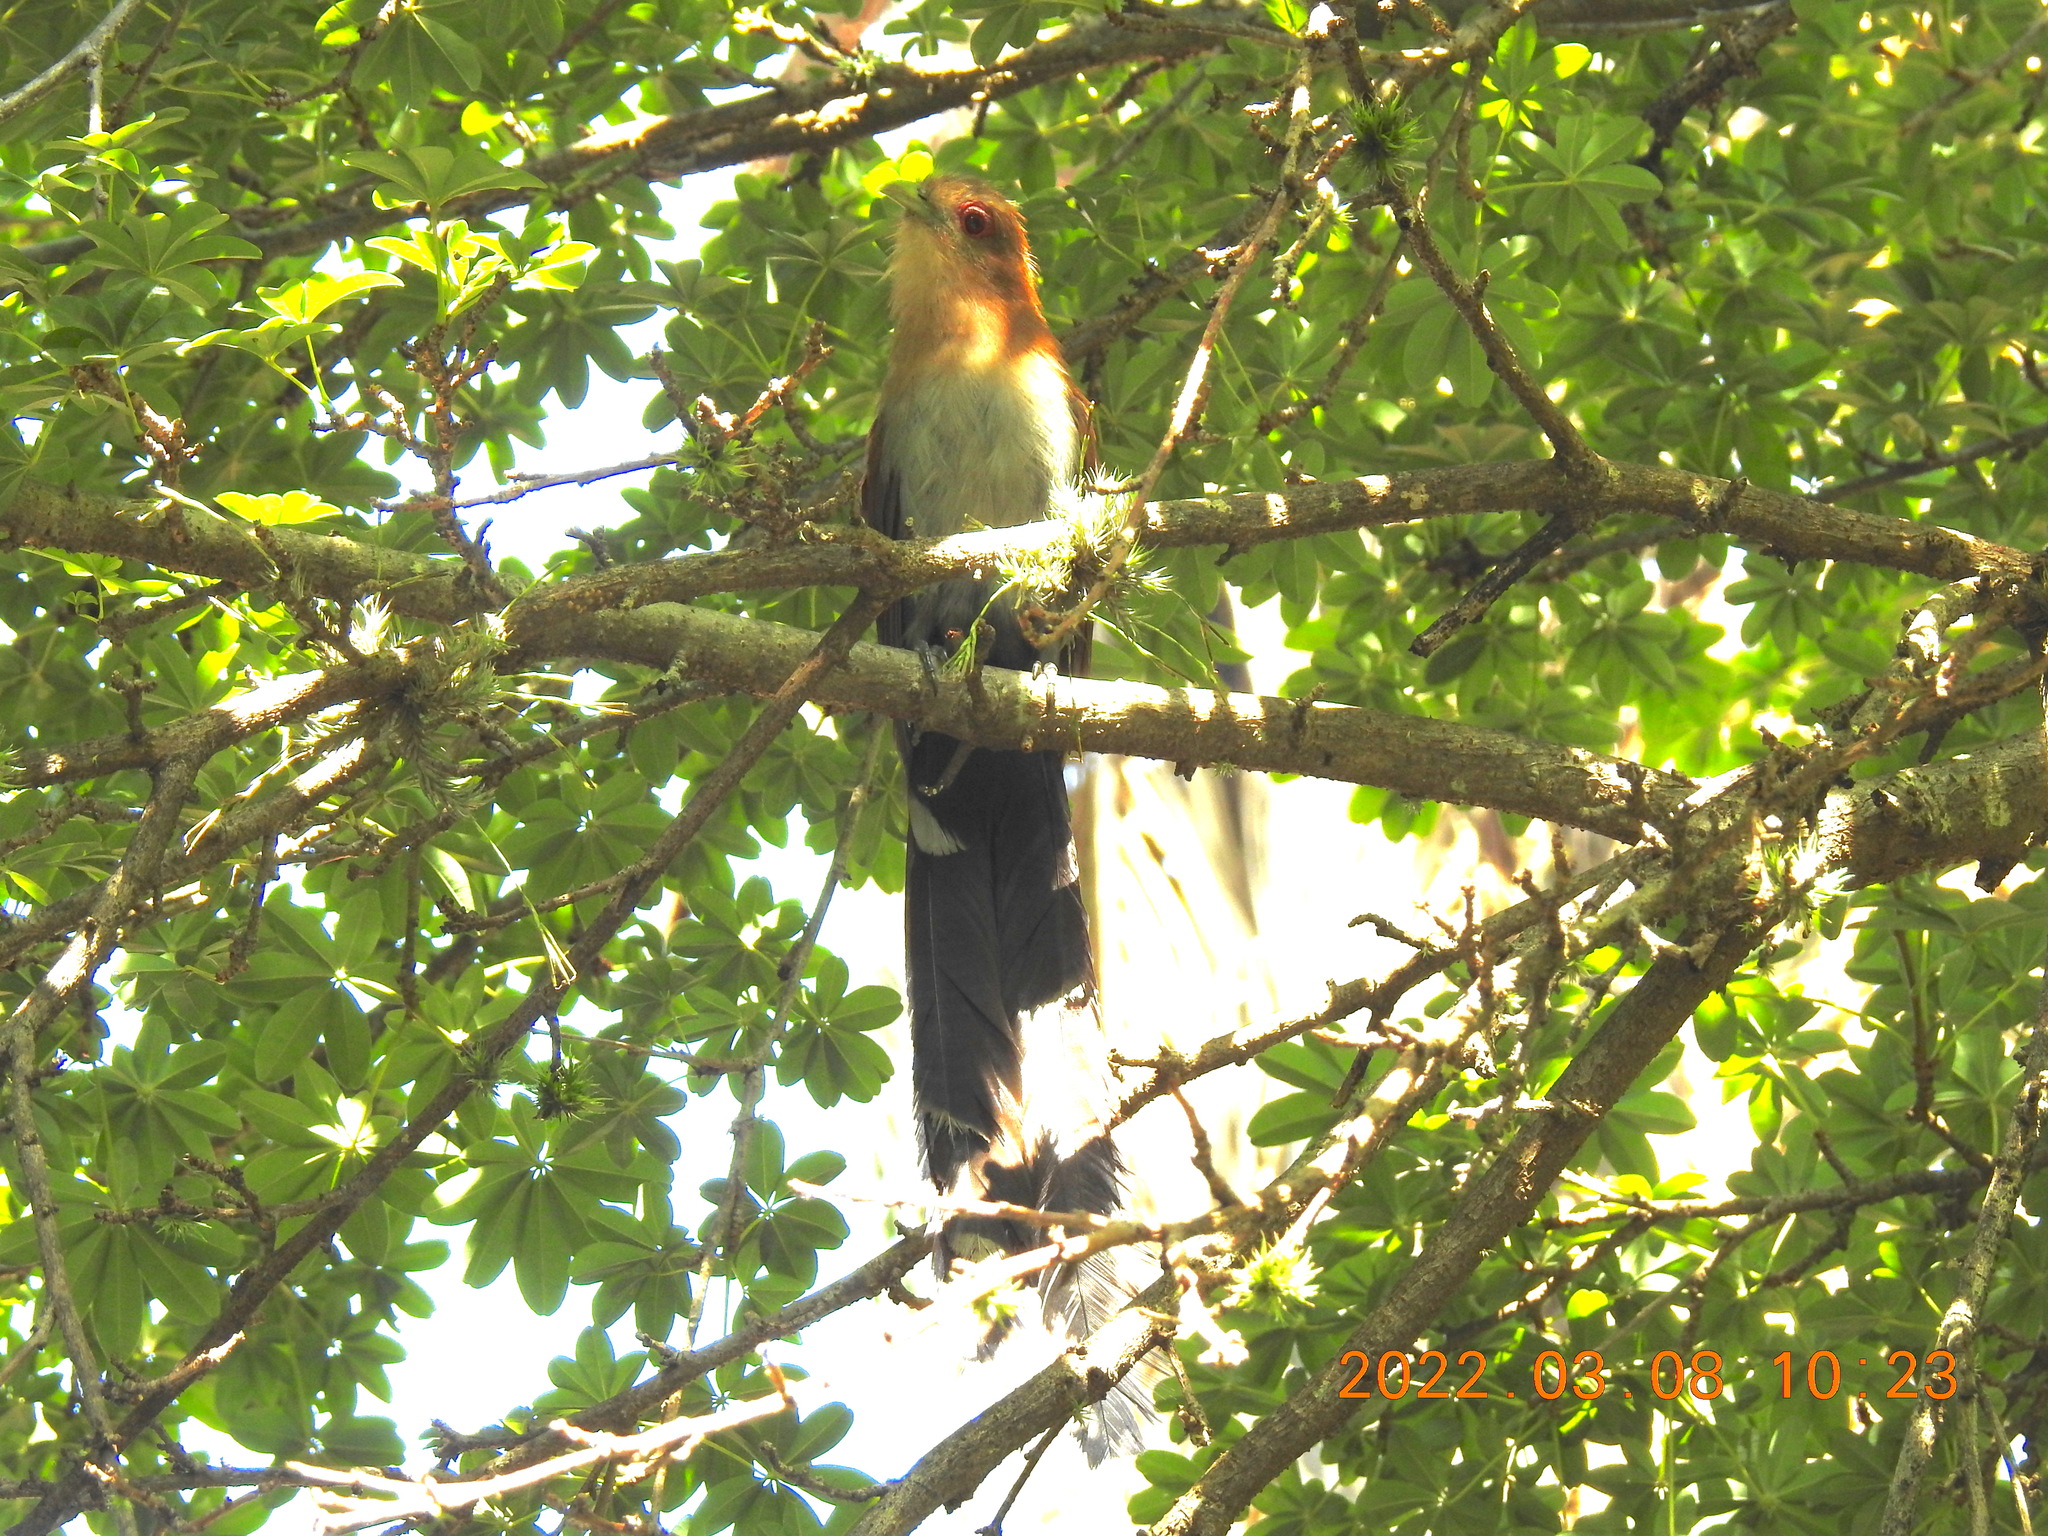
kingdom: Animalia
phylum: Chordata
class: Aves
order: Cuculiformes
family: Cuculidae
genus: Piaya
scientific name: Piaya cayana
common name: Squirrel cuckoo
